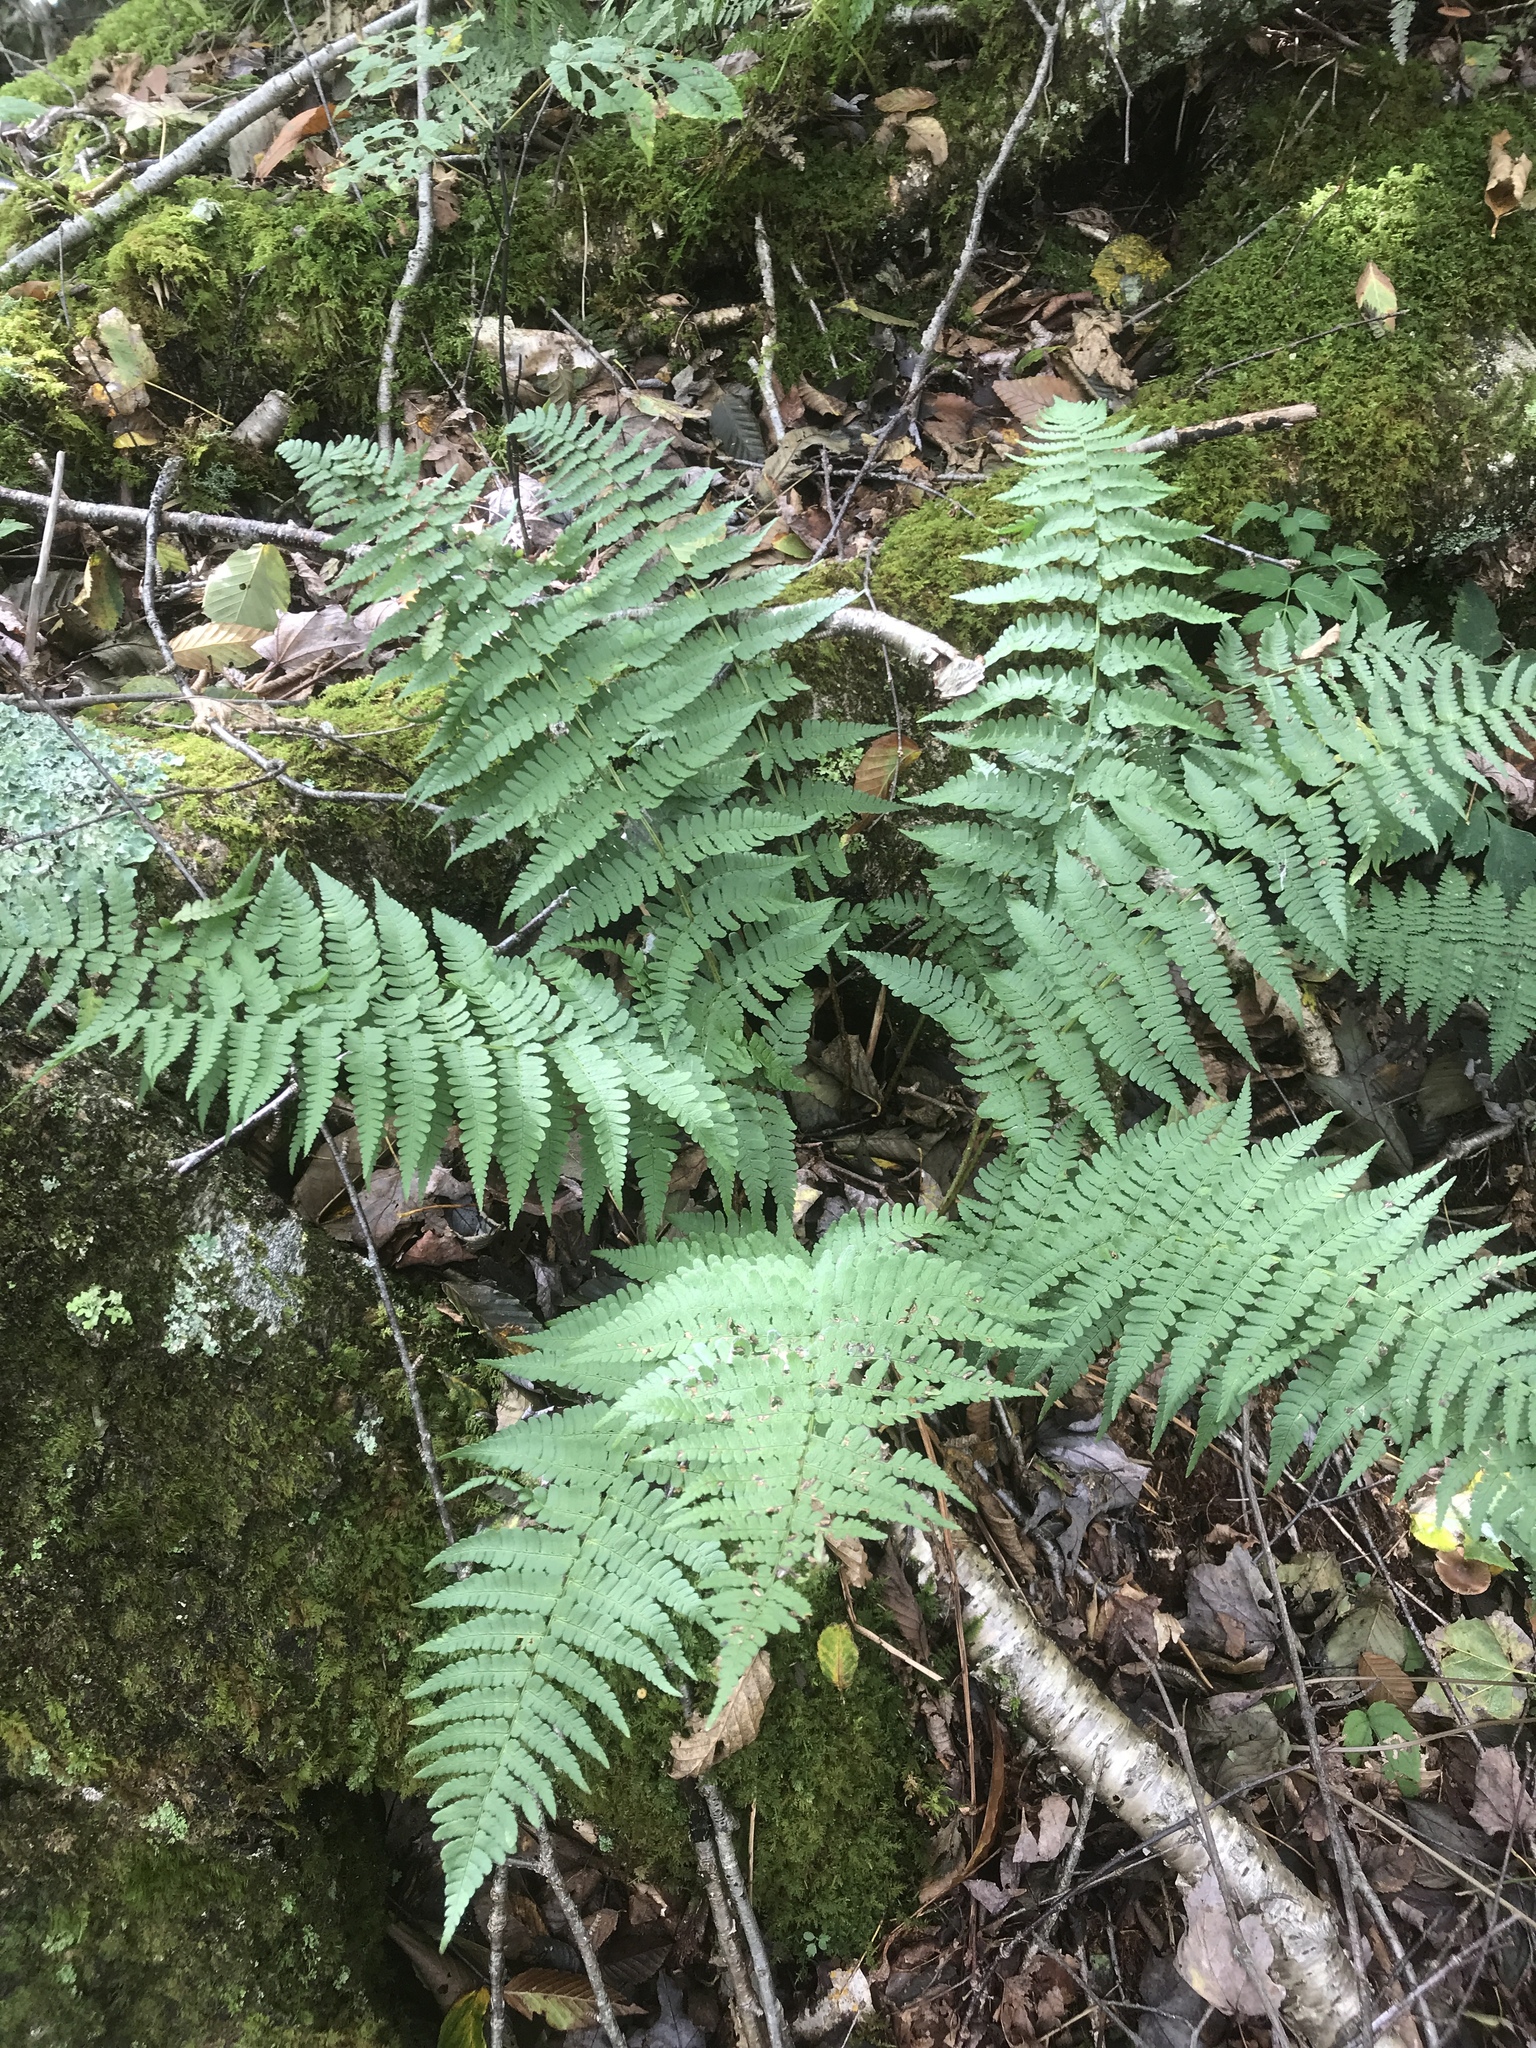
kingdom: Plantae
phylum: Tracheophyta
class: Polypodiopsida
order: Polypodiales
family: Dryopteridaceae
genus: Dryopteris
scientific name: Dryopteris marginalis
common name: Marginal wood fern
